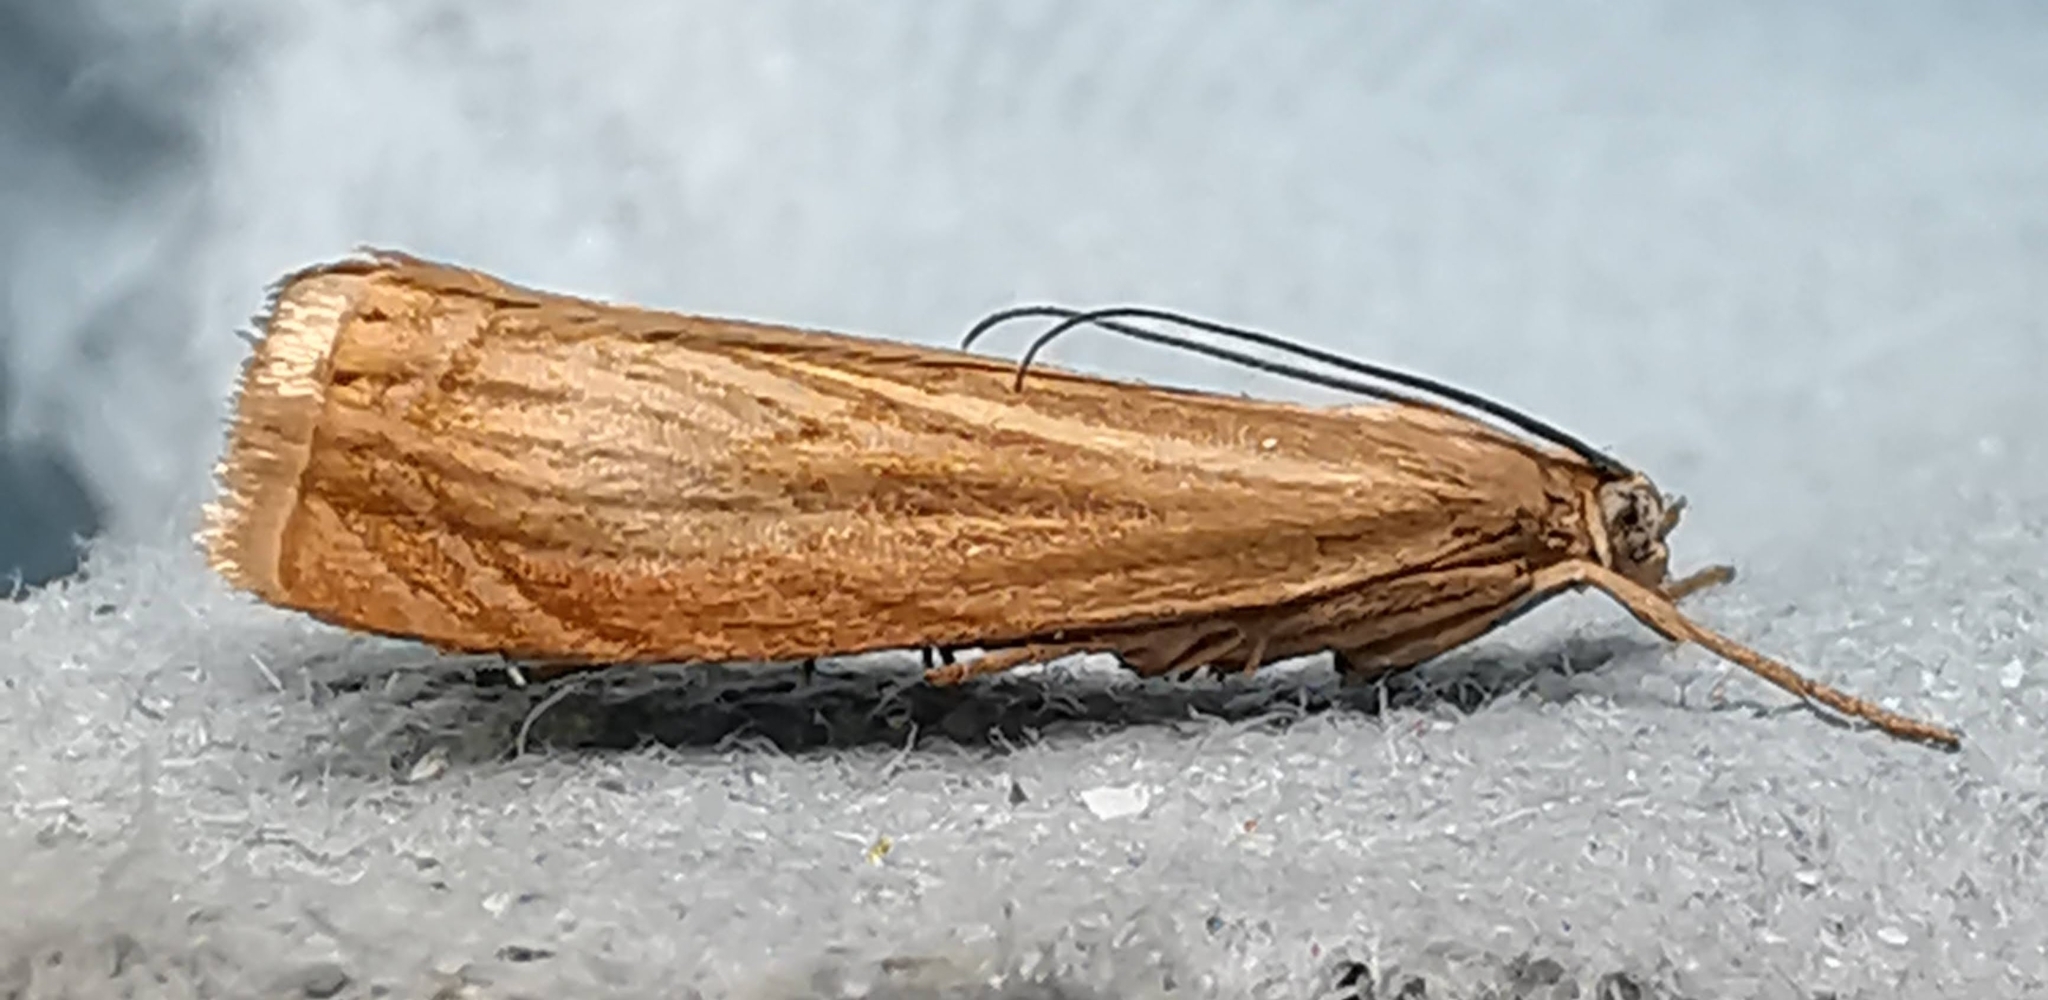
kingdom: Animalia
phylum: Arthropoda
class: Insecta
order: Lepidoptera
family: Crambidae
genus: Chrysoteuchia
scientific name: Chrysoteuchia culmella
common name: Garden grass-veneer
